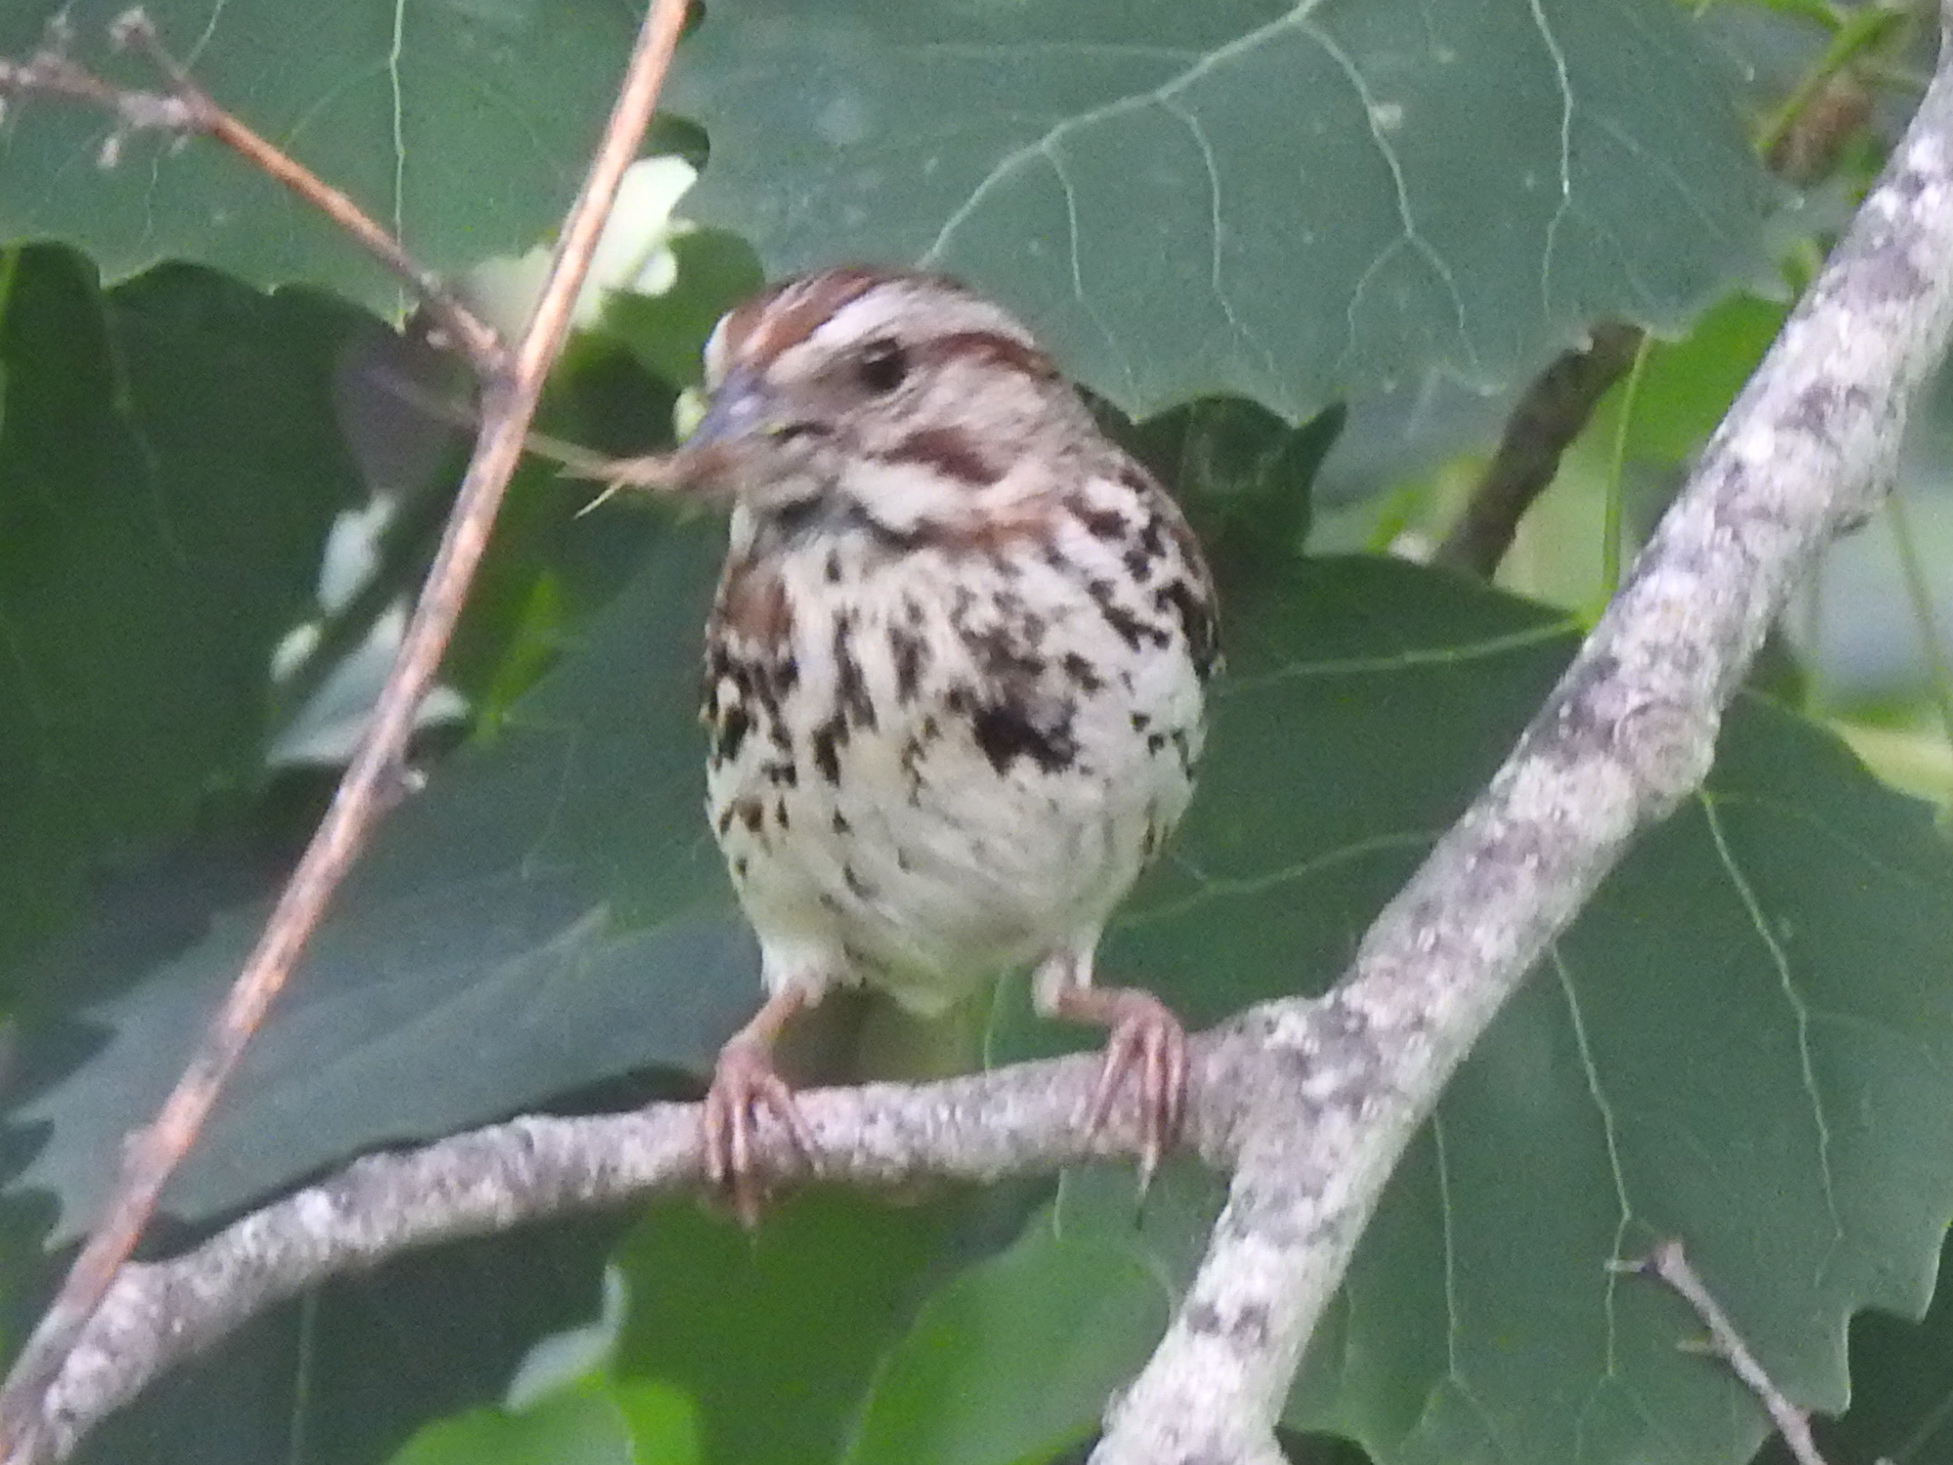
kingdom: Animalia
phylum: Chordata
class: Aves
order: Passeriformes
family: Passerellidae
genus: Melospiza
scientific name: Melospiza melodia
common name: Song sparrow
